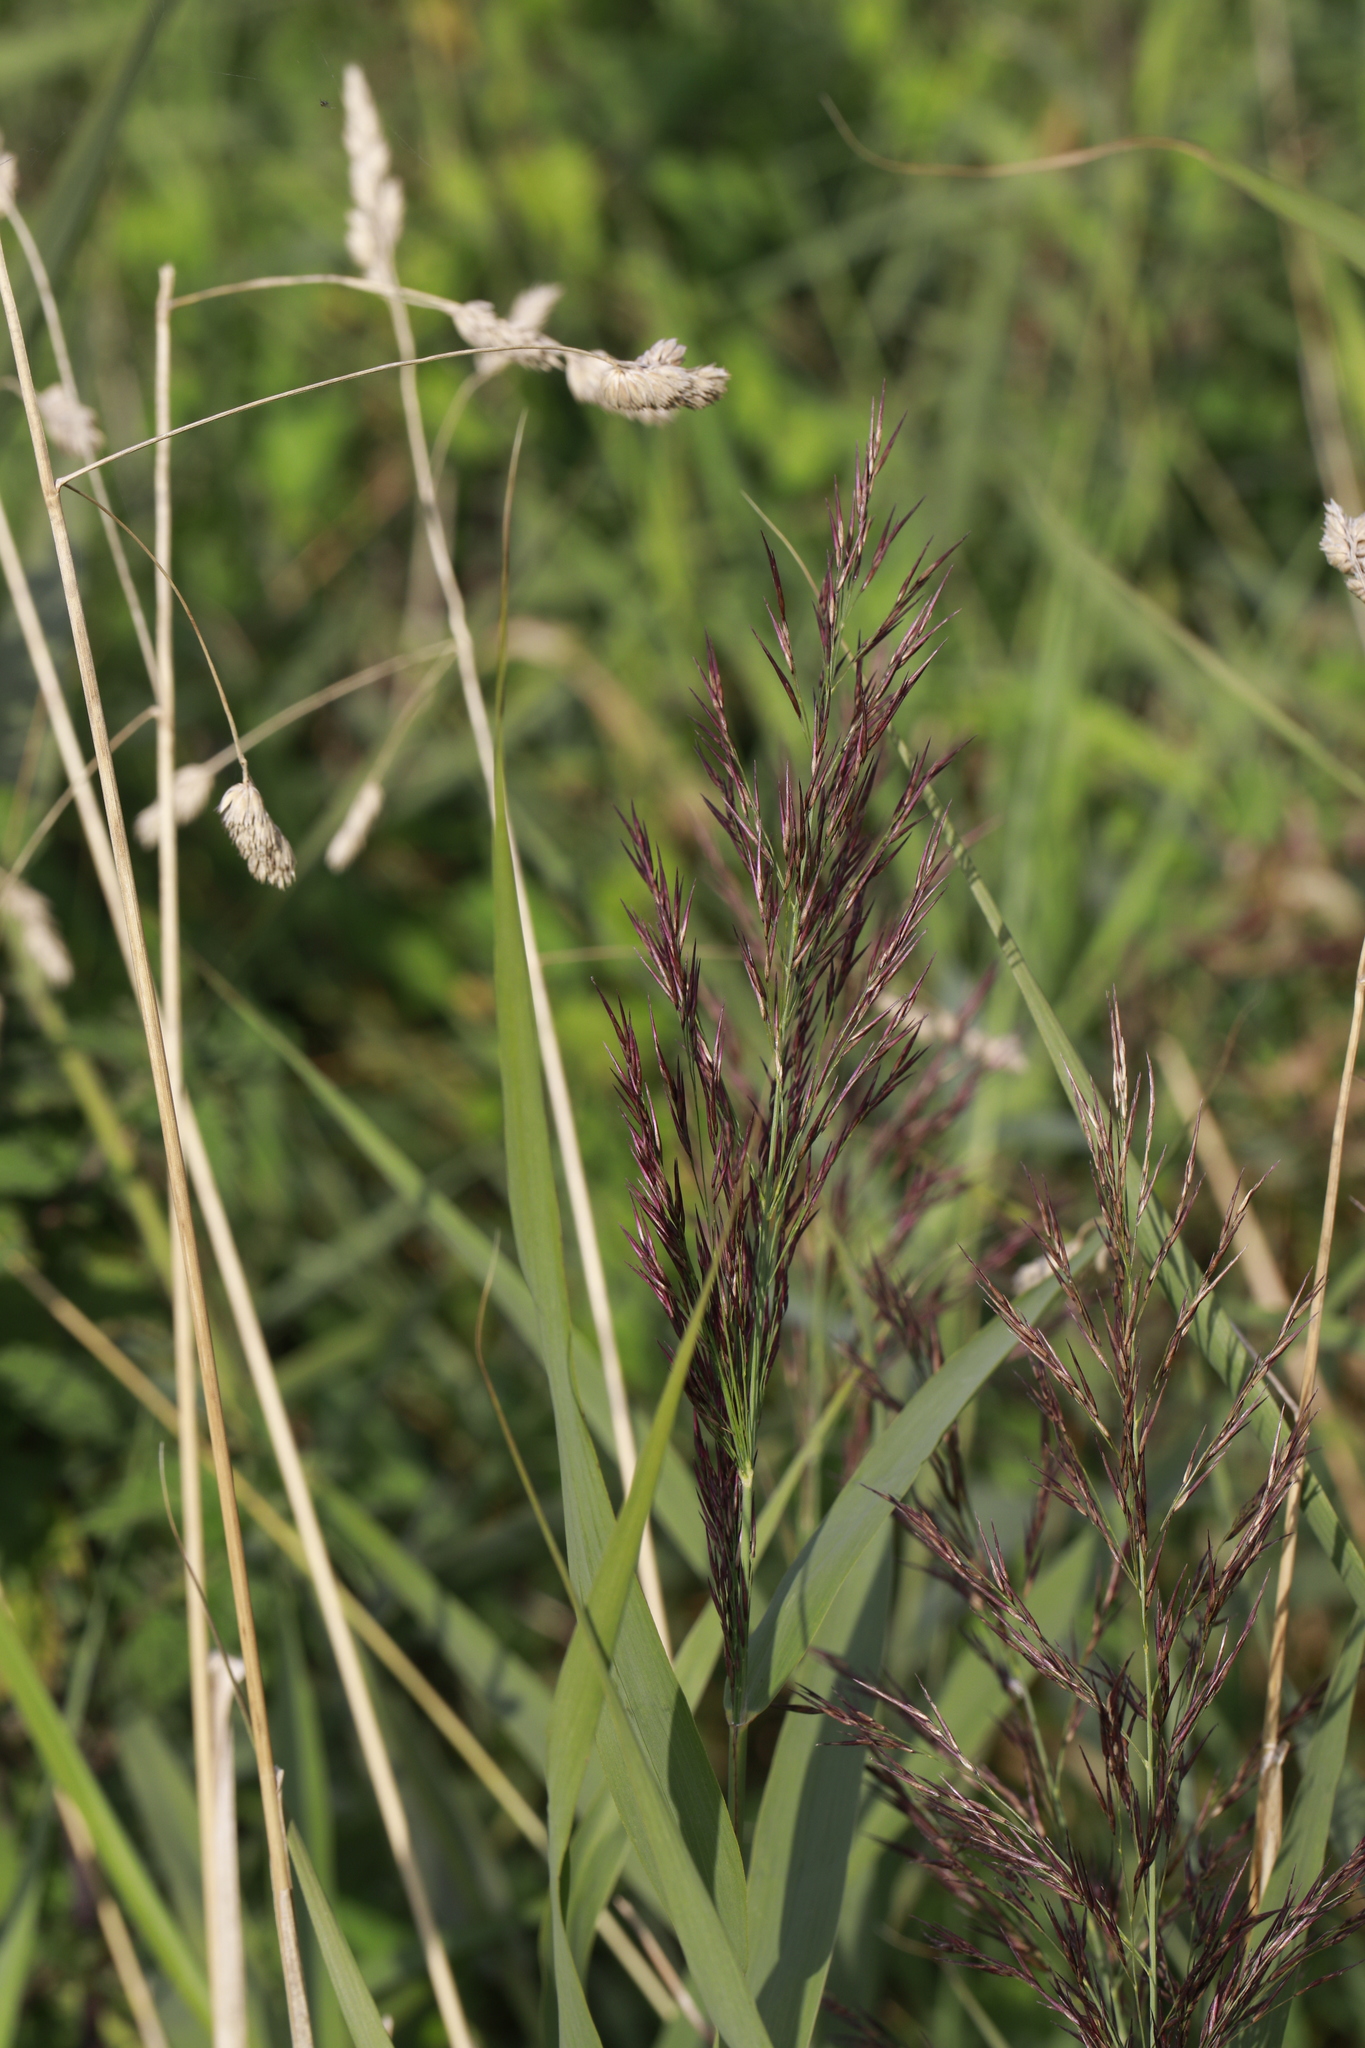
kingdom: Plantae
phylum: Tracheophyta
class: Liliopsida
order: Poales
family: Poaceae
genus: Phragmites
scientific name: Phragmites australis
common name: Common reed
